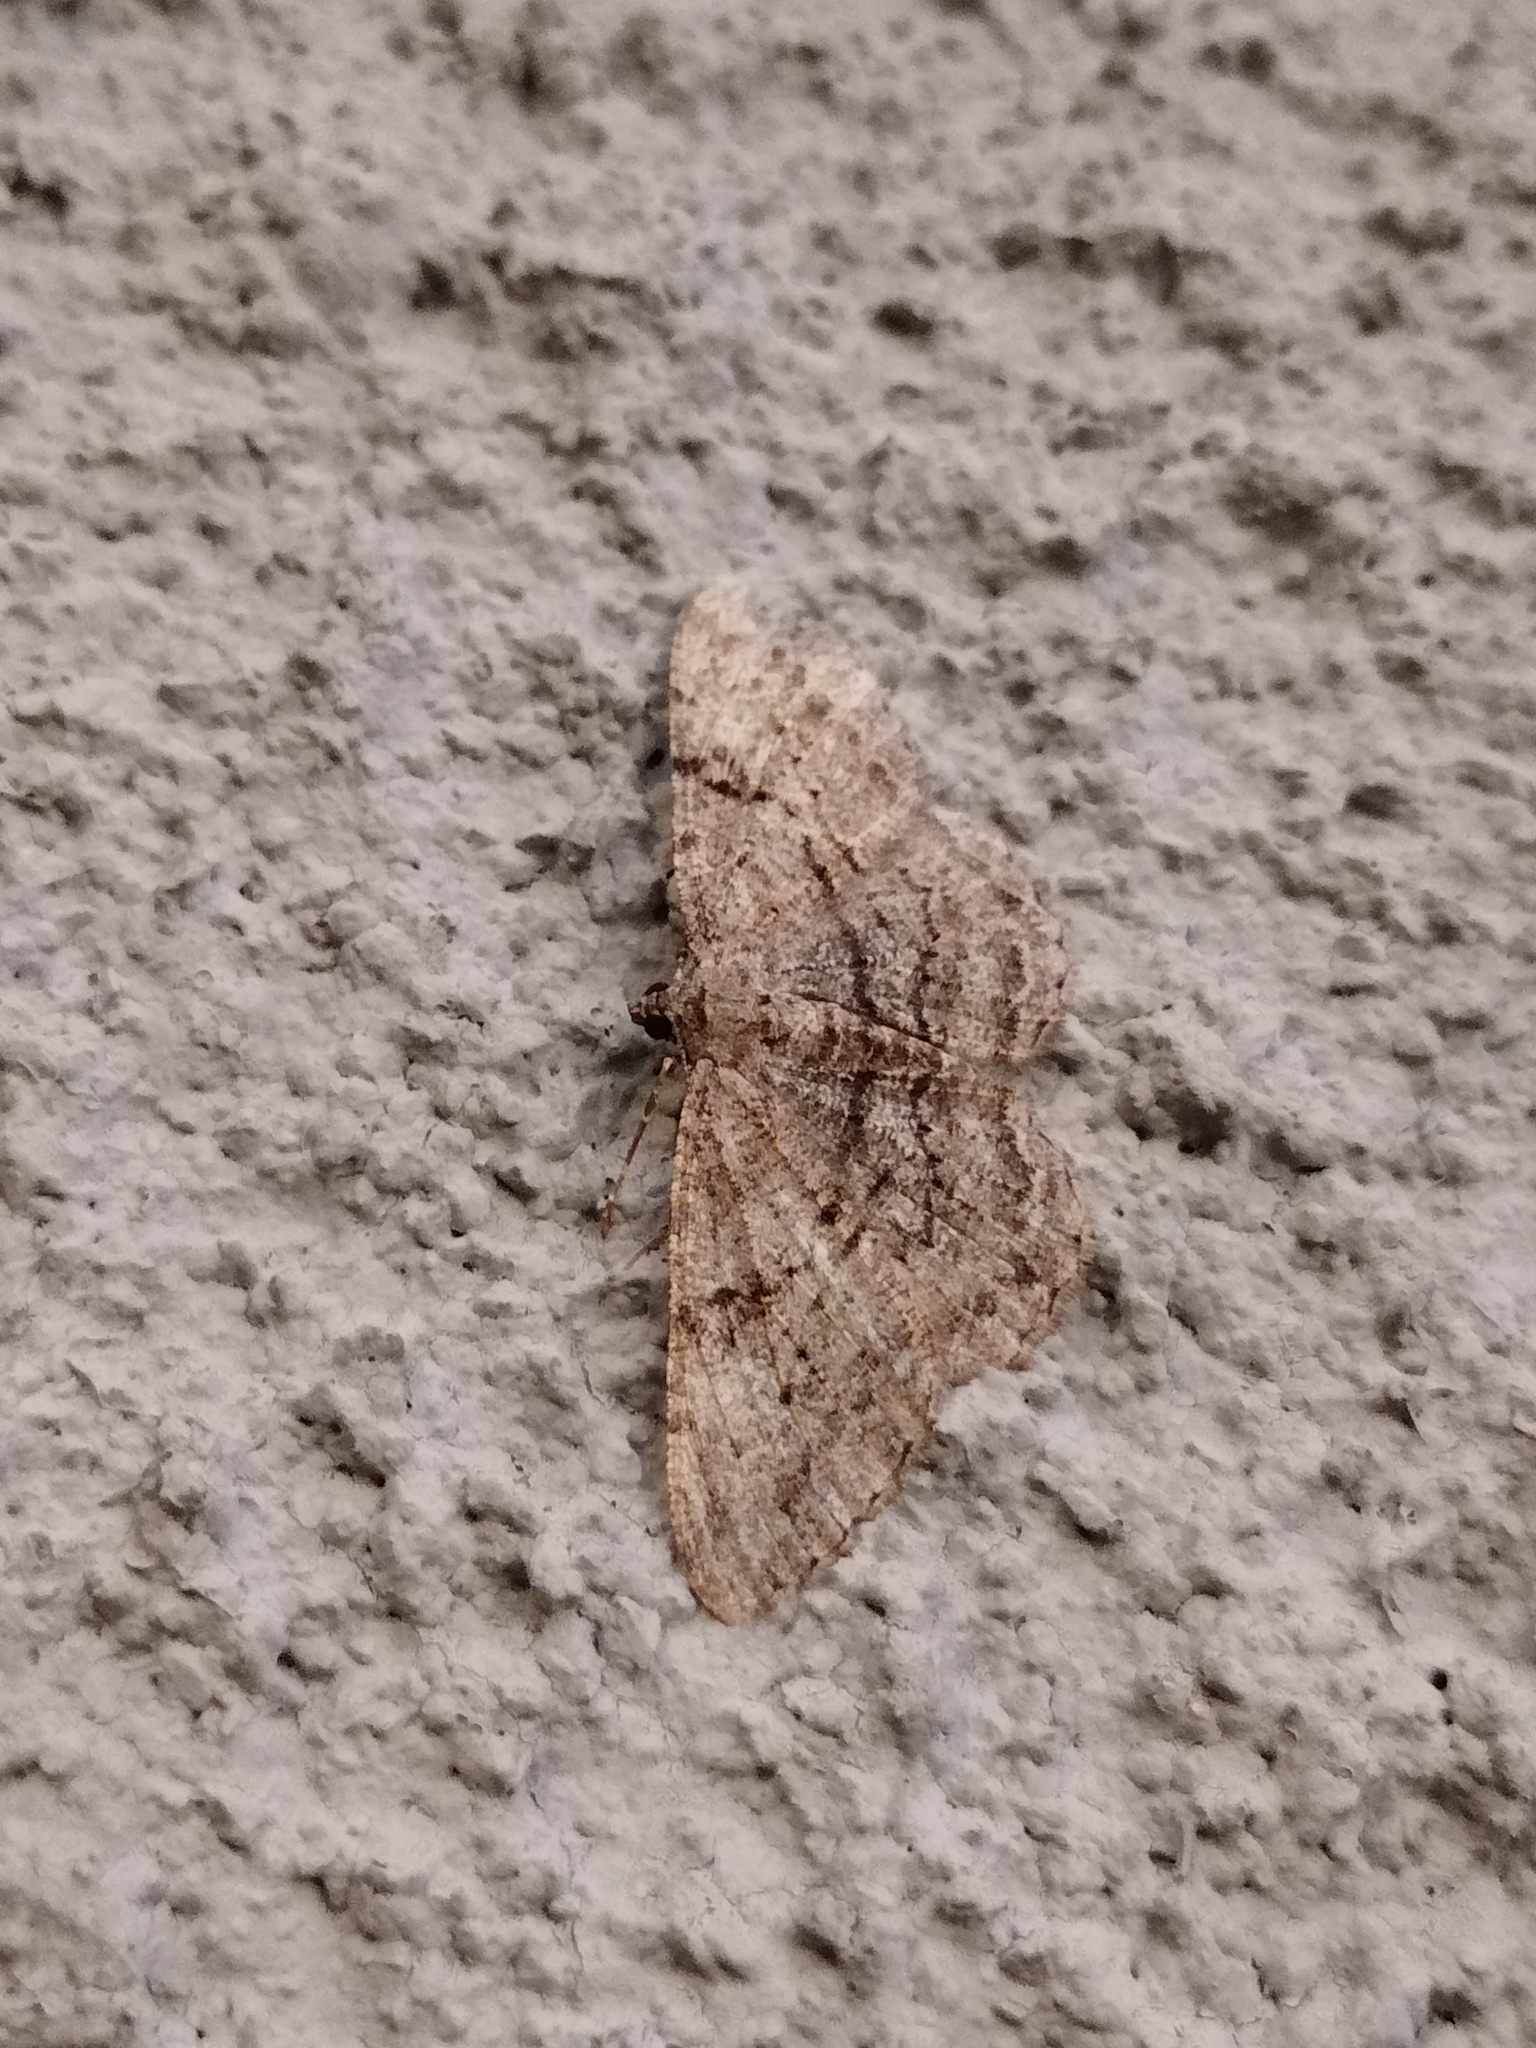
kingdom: Animalia
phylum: Arthropoda
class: Insecta
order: Lepidoptera
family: Geometridae
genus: Peribatodes
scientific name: Peribatodes rhomboidaria
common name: Willow beauty
